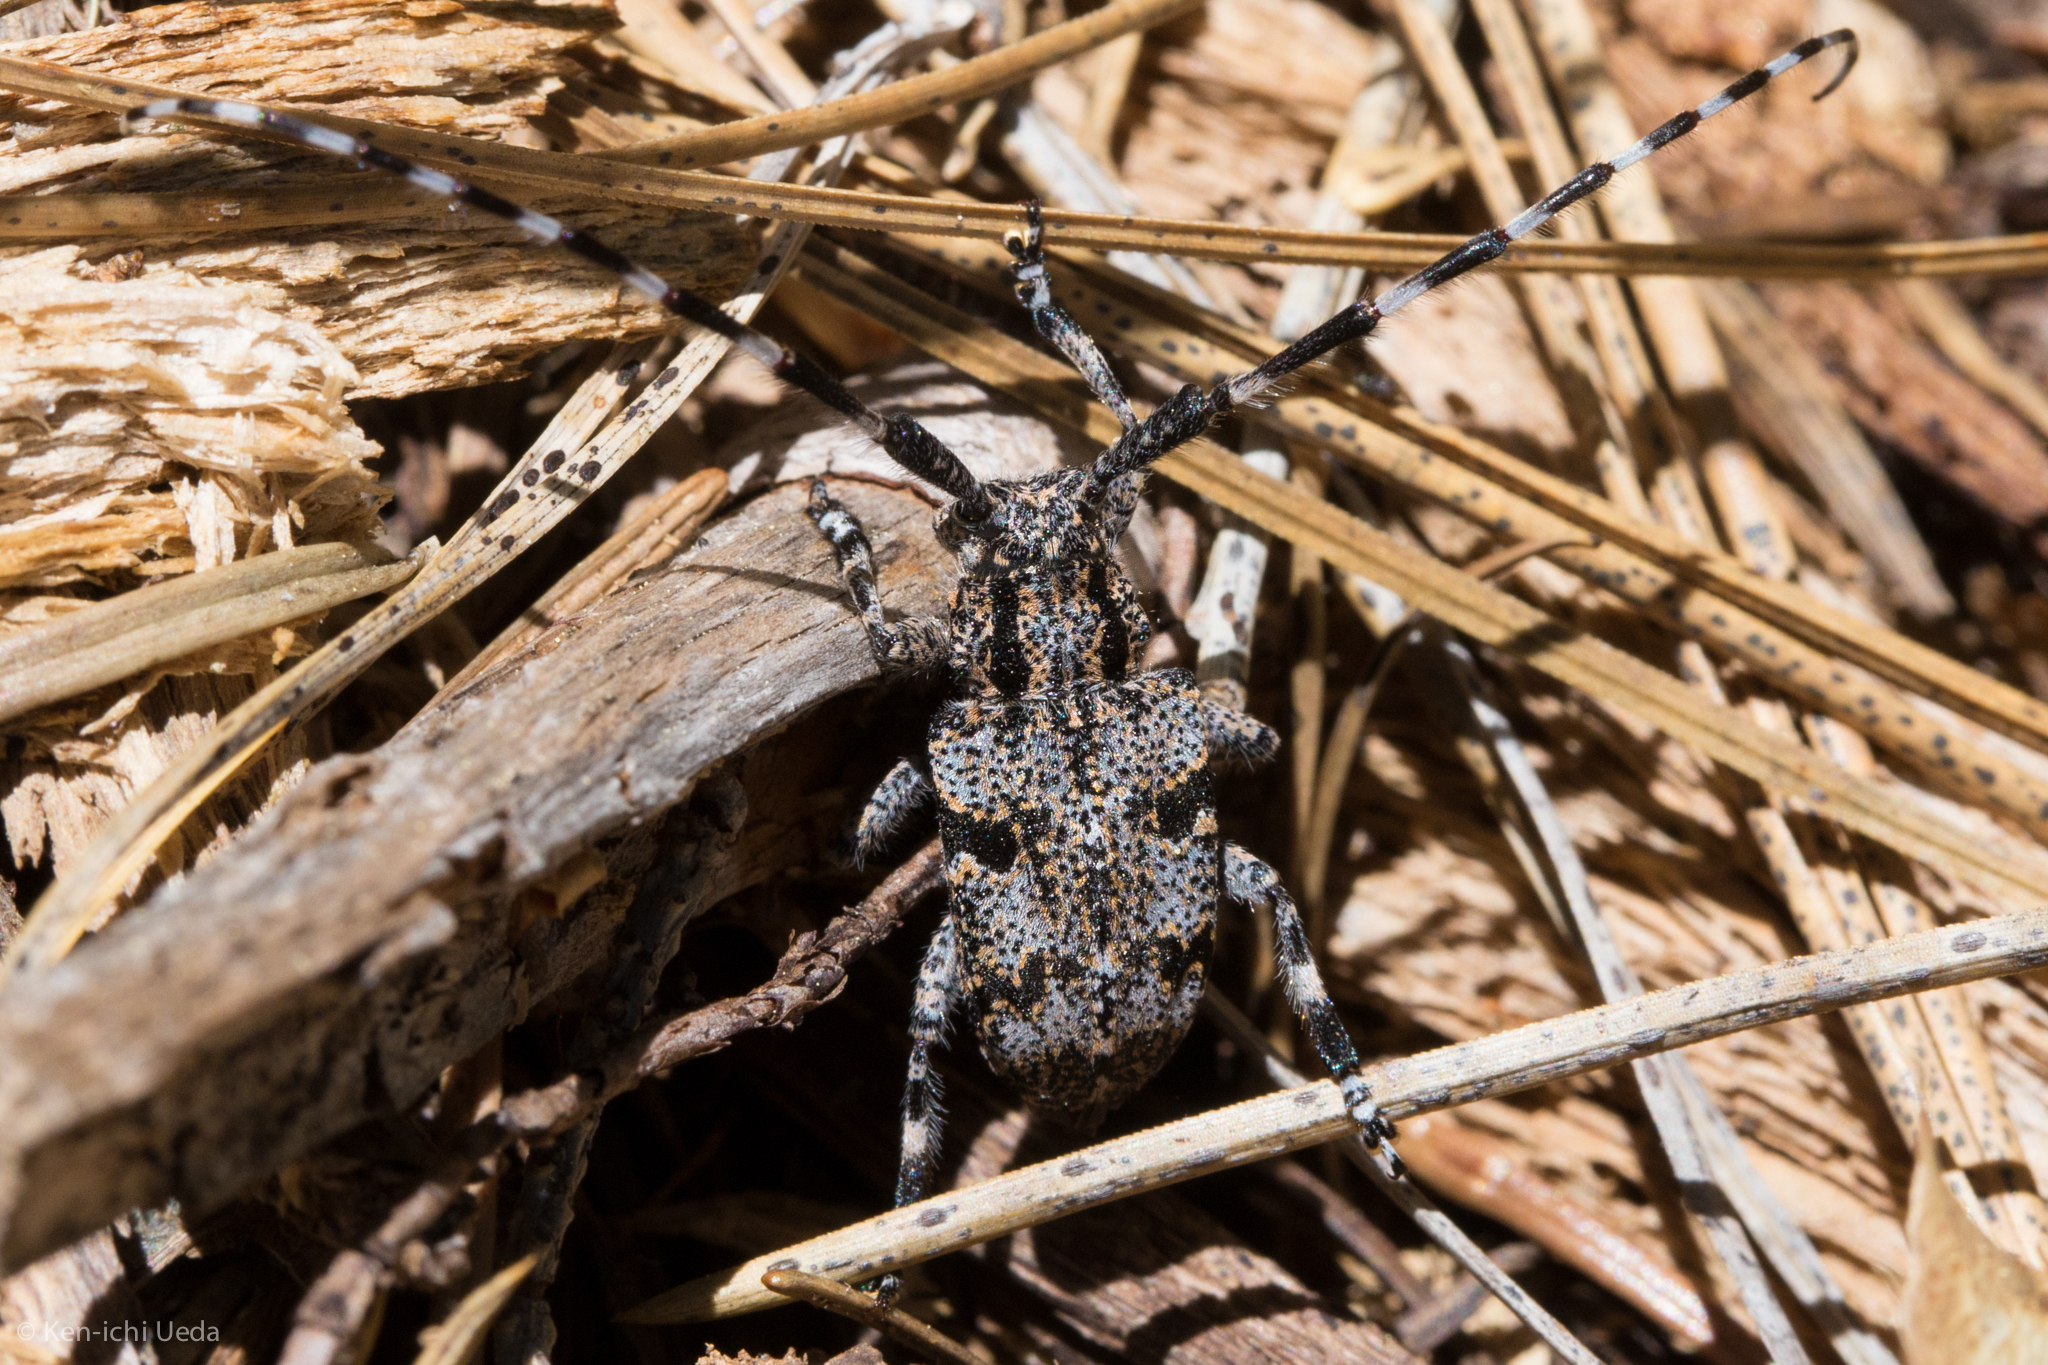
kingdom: Animalia
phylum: Arthropoda
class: Insecta
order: Coleoptera
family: Cerambycidae
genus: Synaphaeta
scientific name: Synaphaeta guexi
